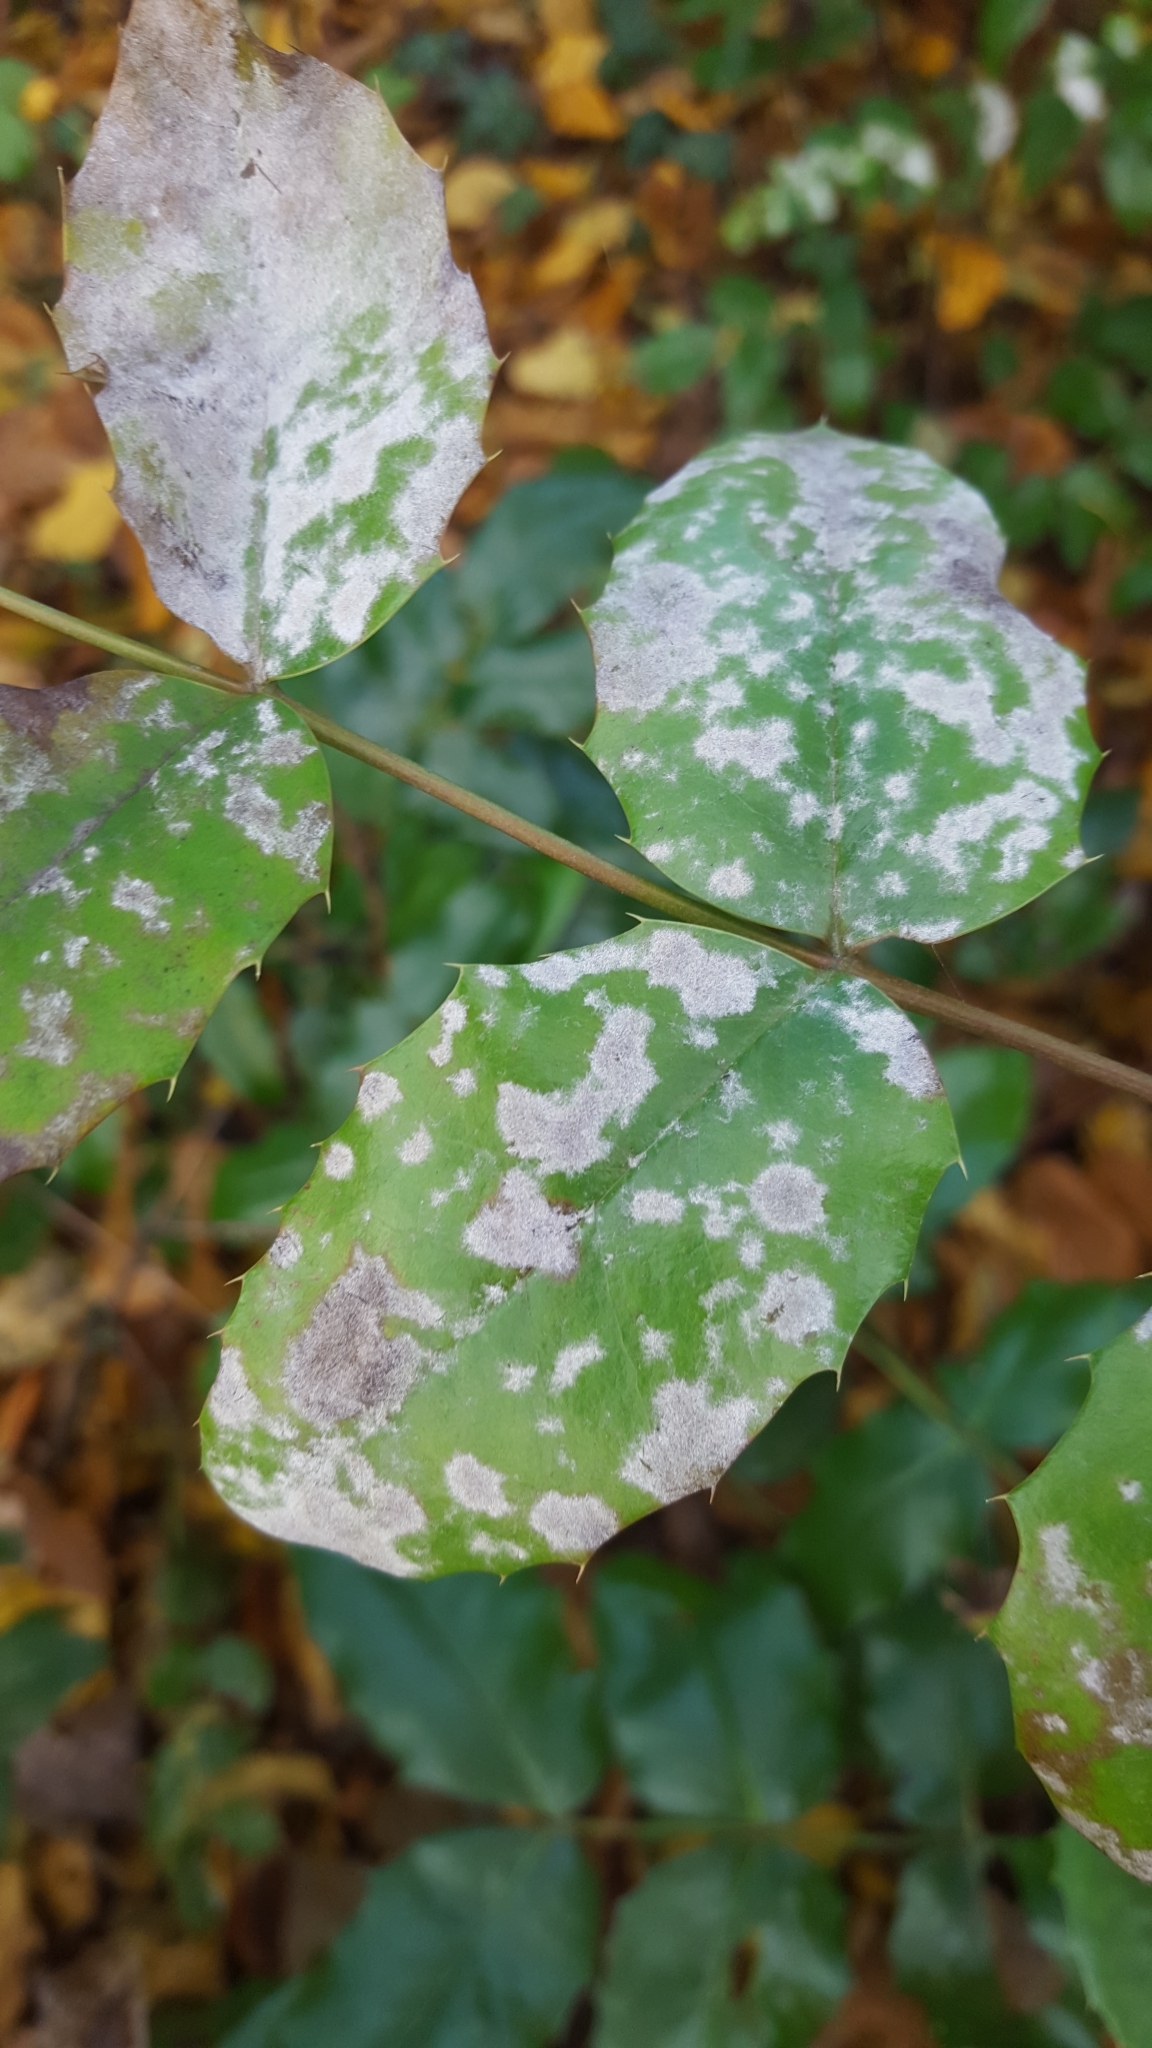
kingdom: Fungi
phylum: Ascomycota
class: Leotiomycetes
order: Helotiales
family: Erysiphaceae
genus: Erysiphe
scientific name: Erysiphe berberidis
